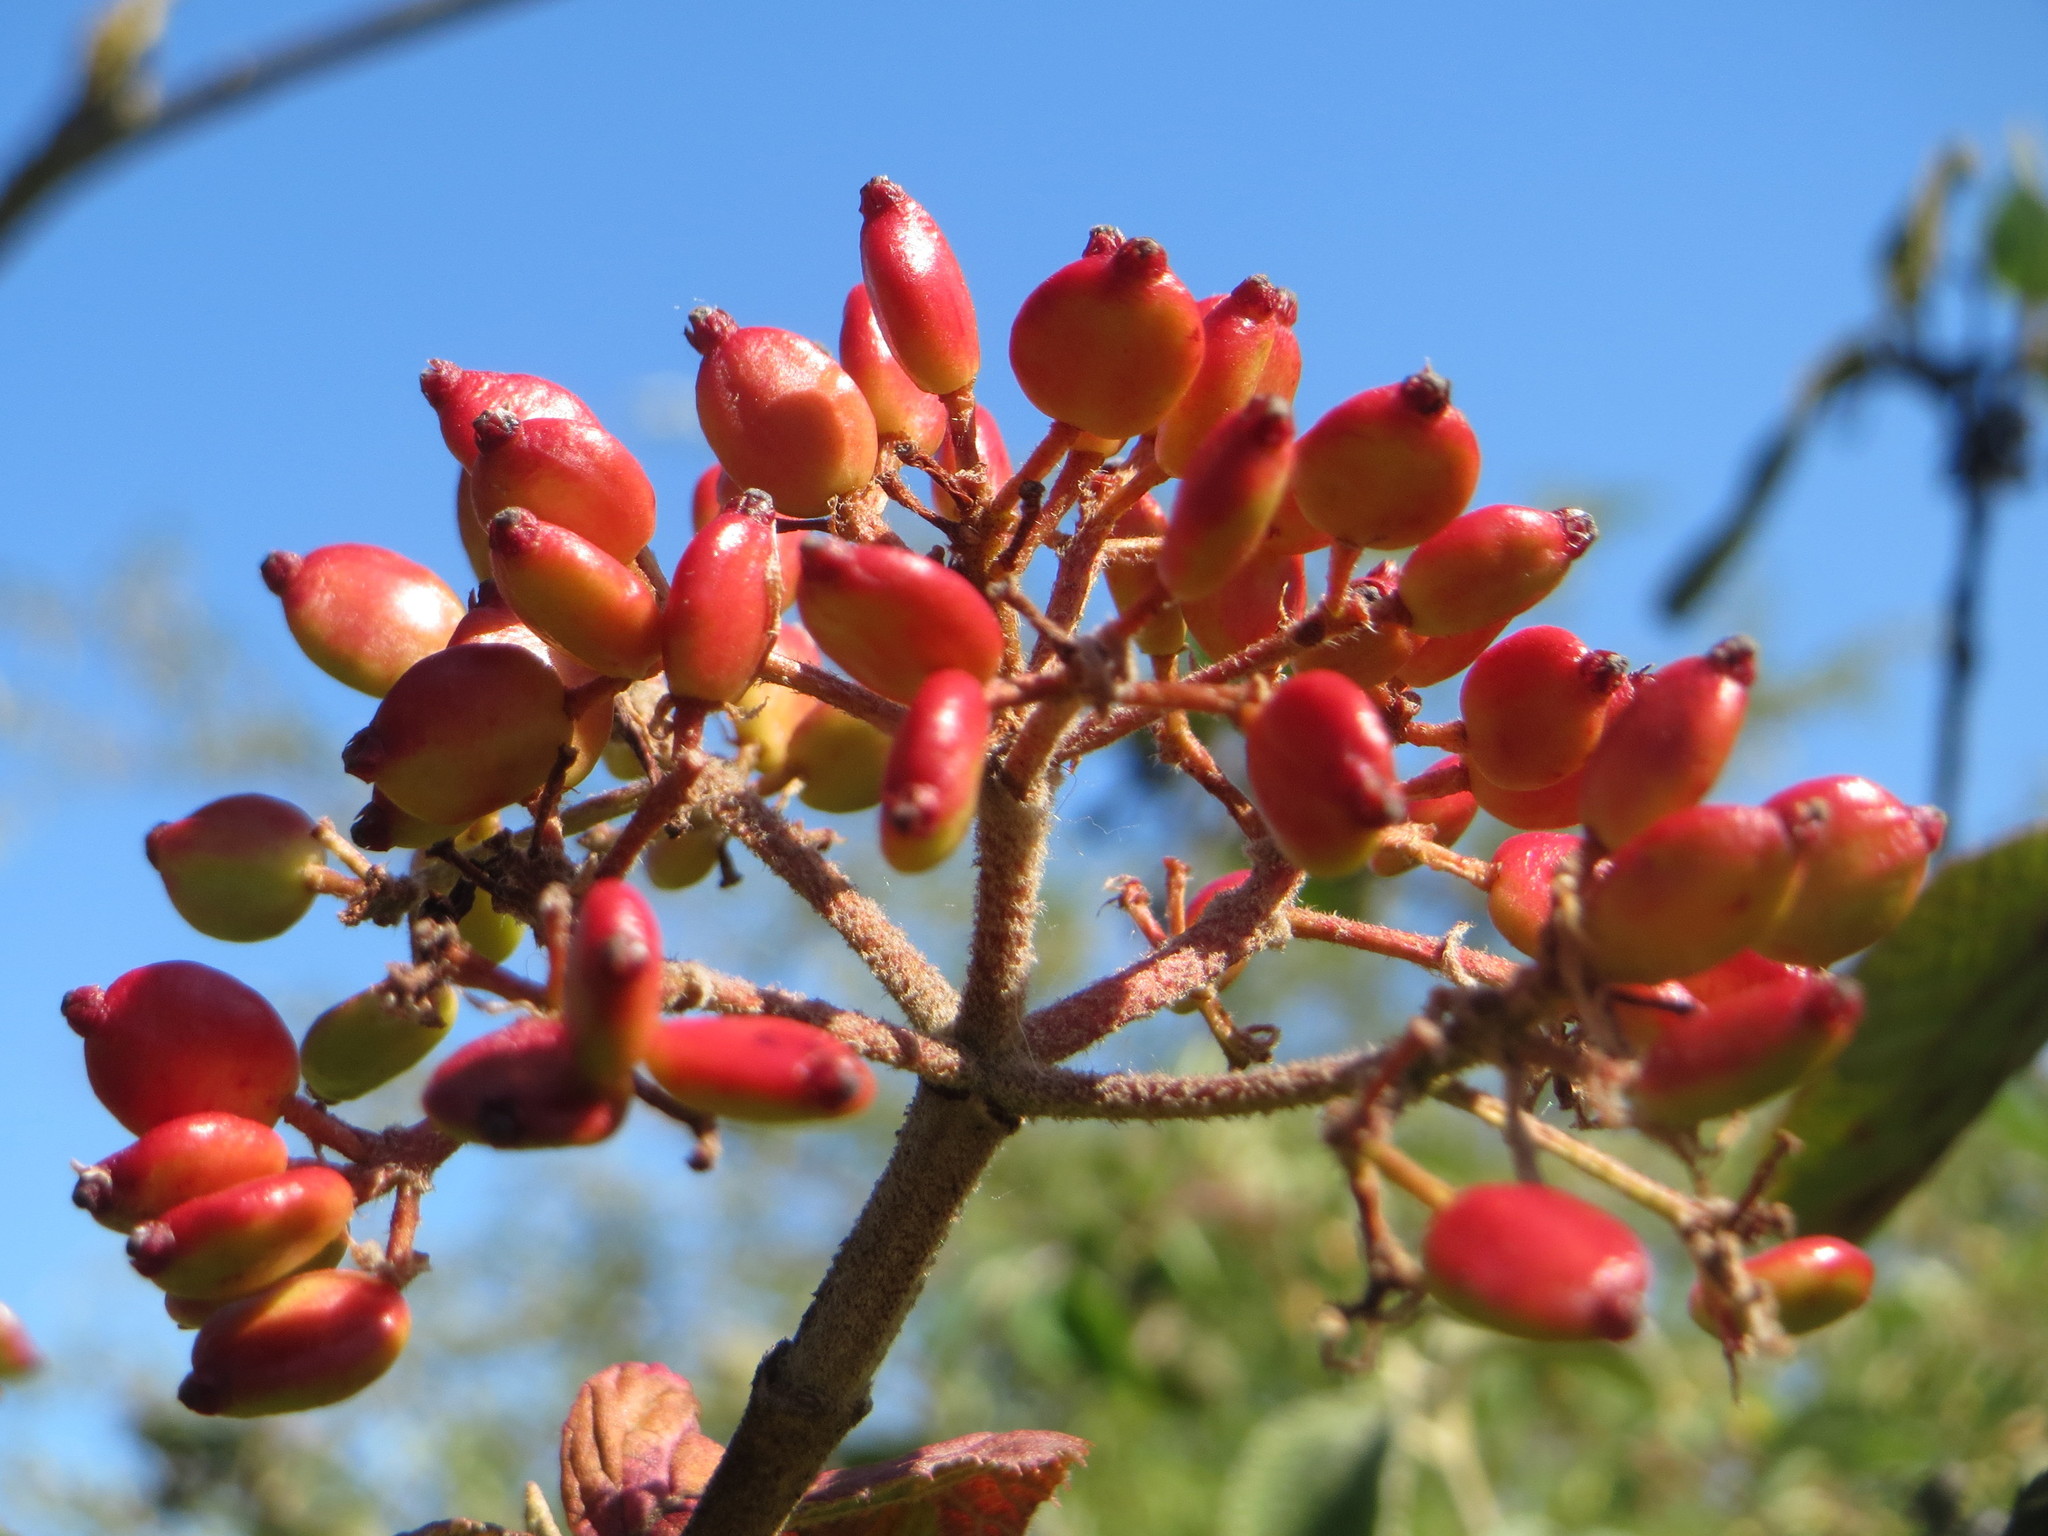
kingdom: Plantae
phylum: Tracheophyta
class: Magnoliopsida
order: Dipsacales
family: Viburnaceae
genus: Viburnum
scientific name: Viburnum lantana
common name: Wayfaring tree
